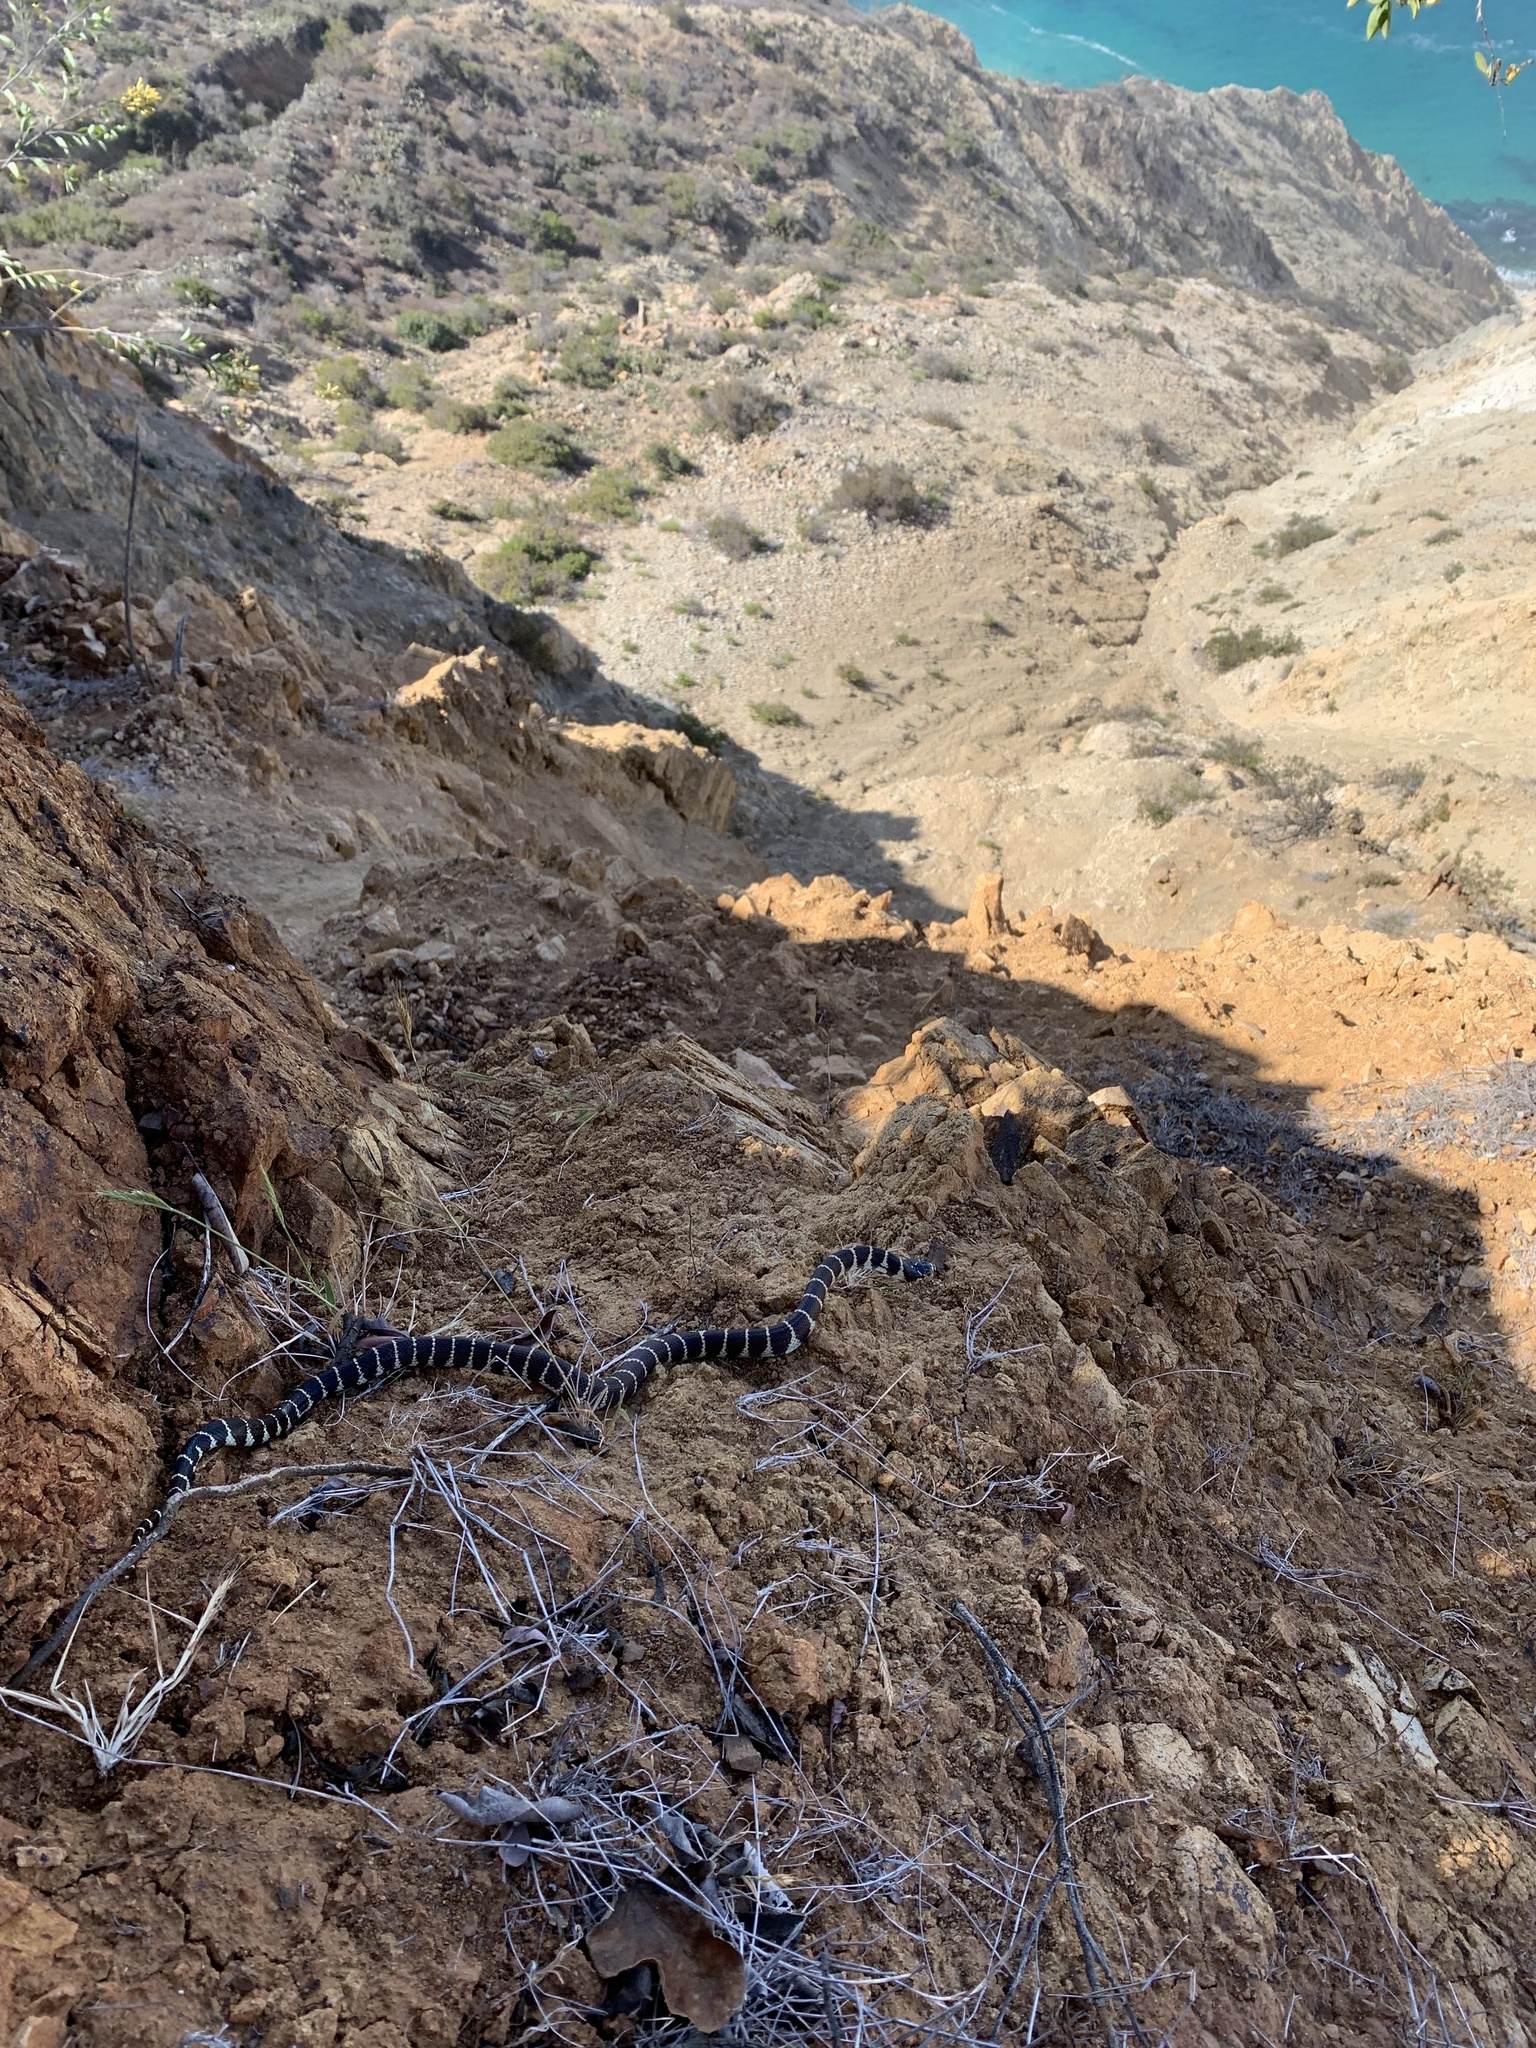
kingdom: Animalia
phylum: Chordata
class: Squamata
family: Colubridae
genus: Lampropeltis
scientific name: Lampropeltis californiae
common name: California kingsnake
